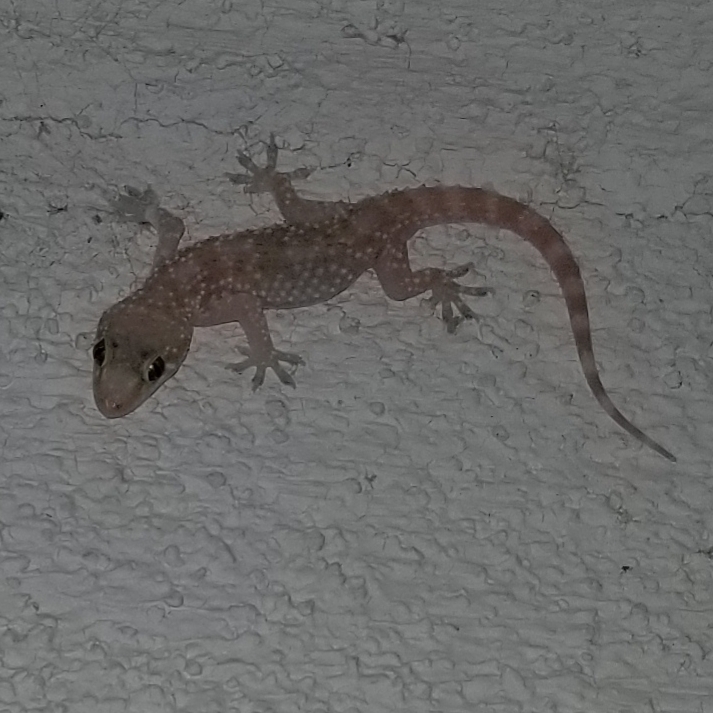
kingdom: Animalia
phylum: Chordata
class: Squamata
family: Gekkonidae
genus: Hemidactylus
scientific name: Hemidactylus turcicus
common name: Turkish gecko
